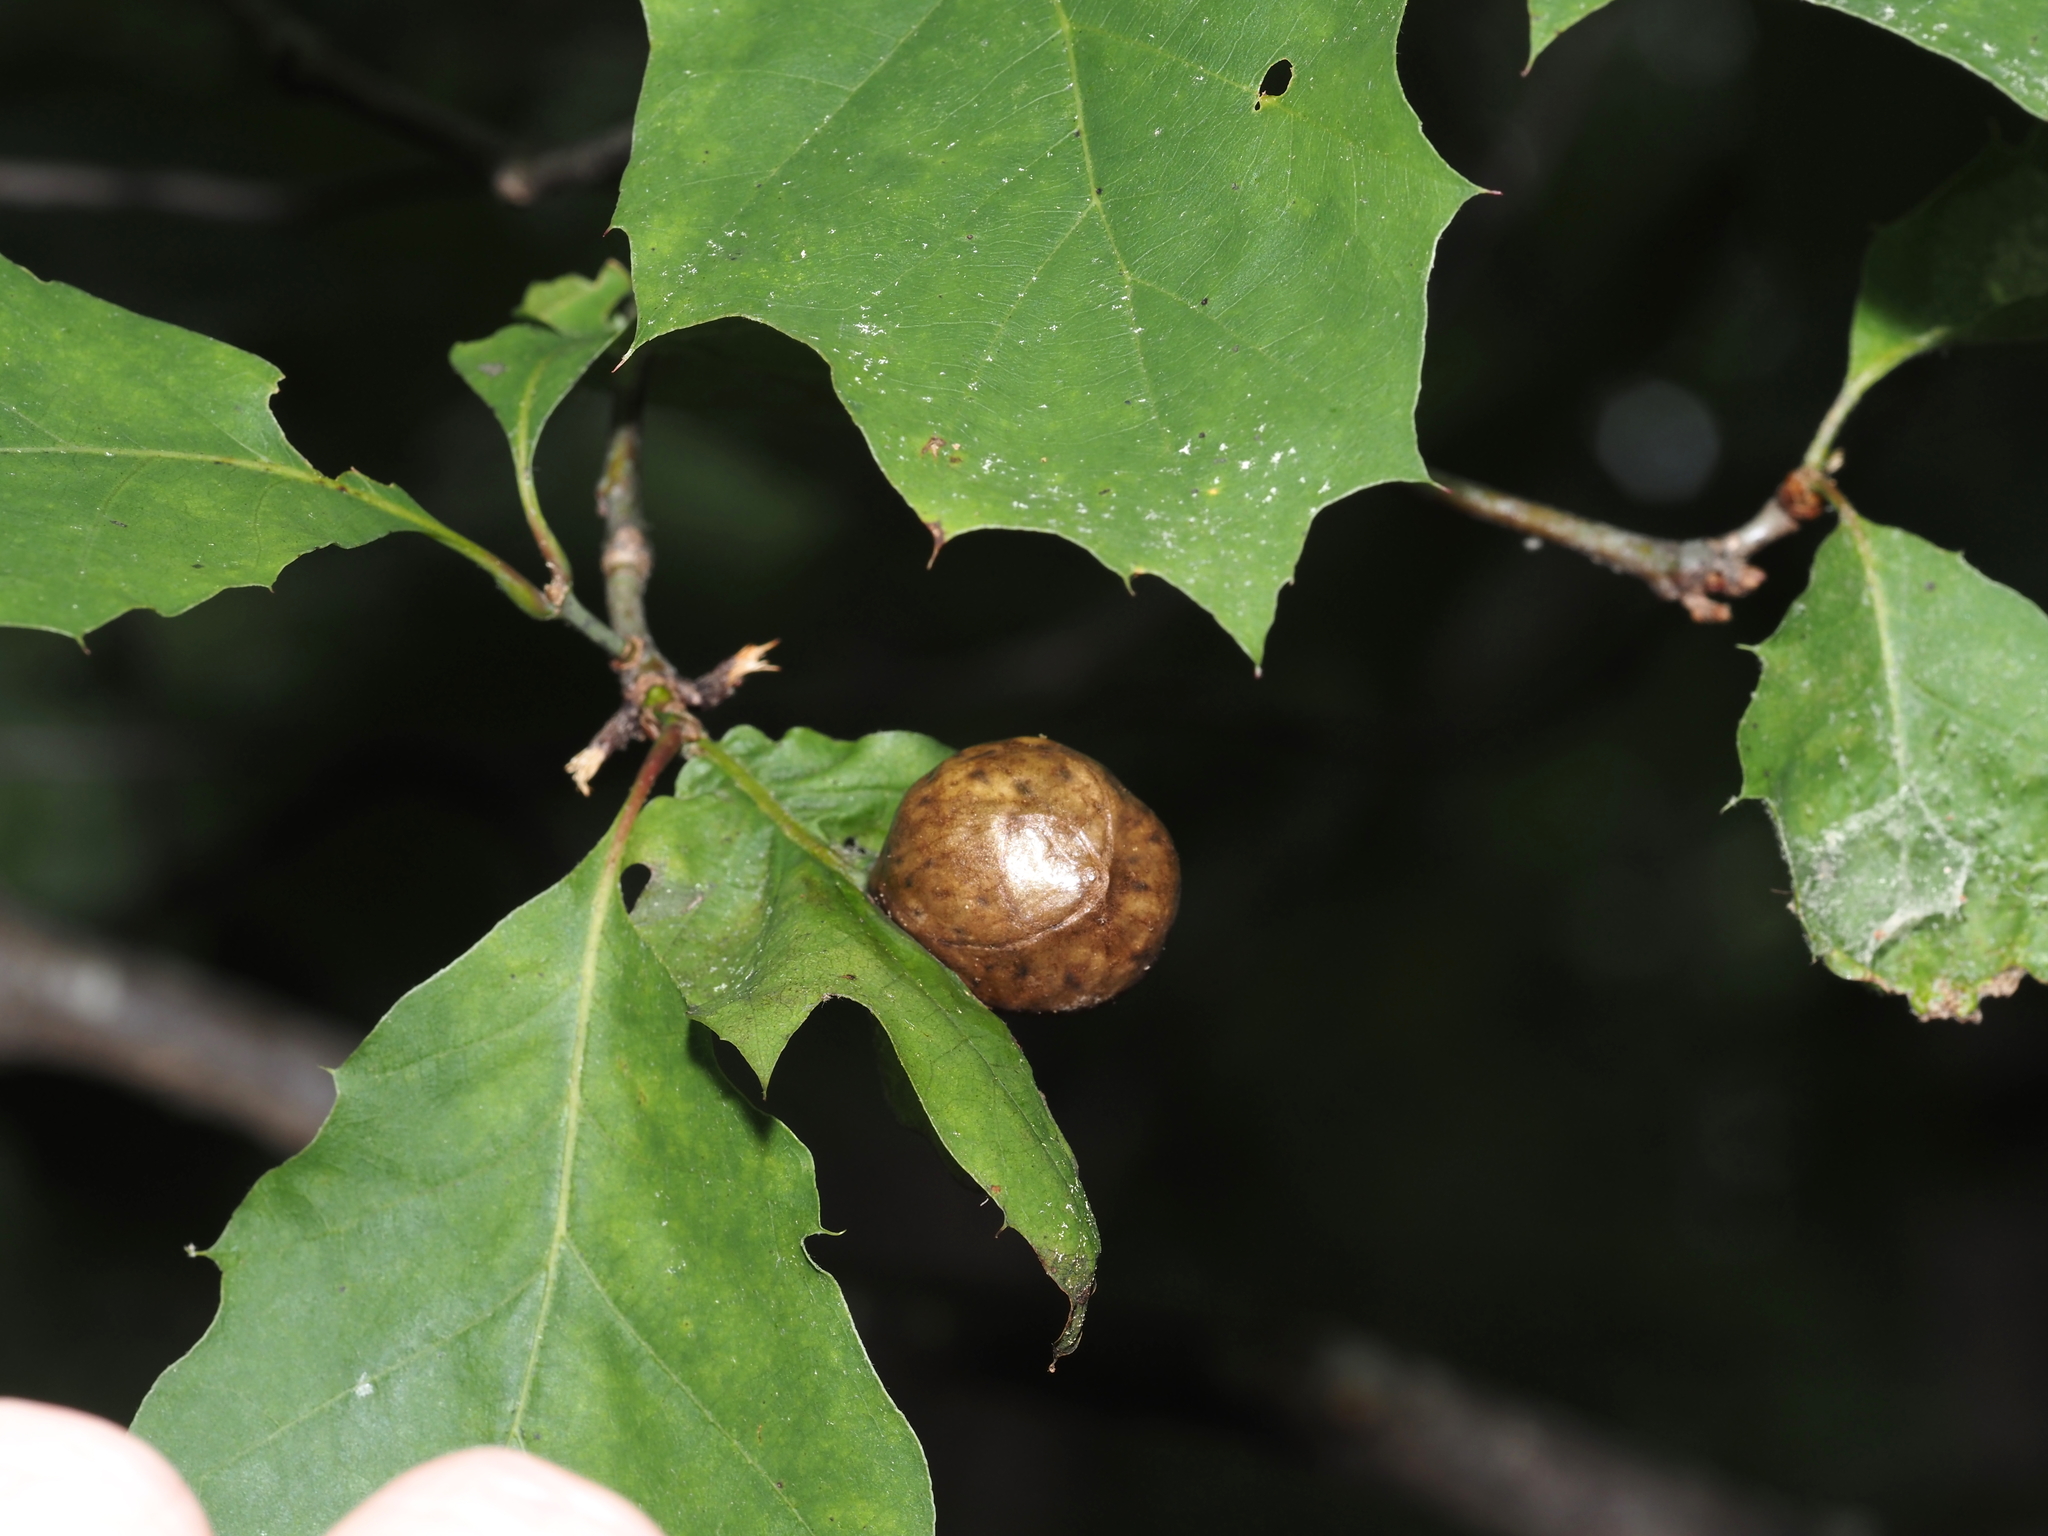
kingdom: Animalia
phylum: Arthropoda
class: Insecta
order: Hymenoptera
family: Cynipidae
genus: Amphibolips
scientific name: Amphibolips
